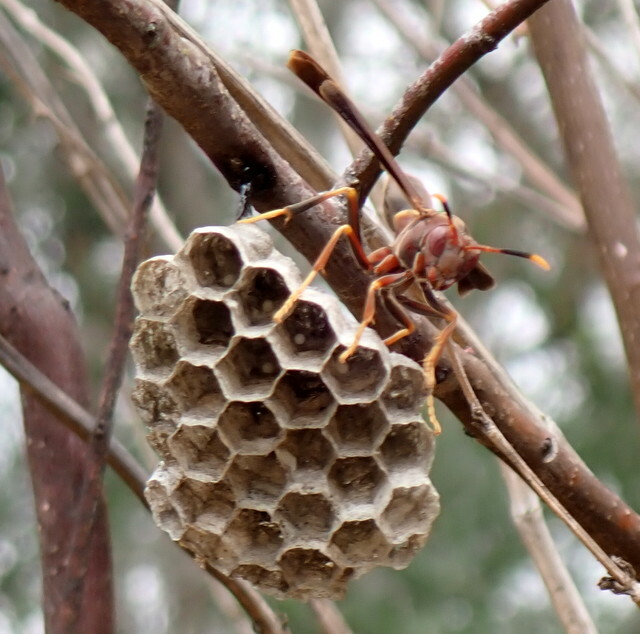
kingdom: Animalia
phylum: Arthropoda
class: Insecta
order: Hymenoptera
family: Eumenidae
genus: Polistes
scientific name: Polistes annularis
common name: Ringed paper wasp
